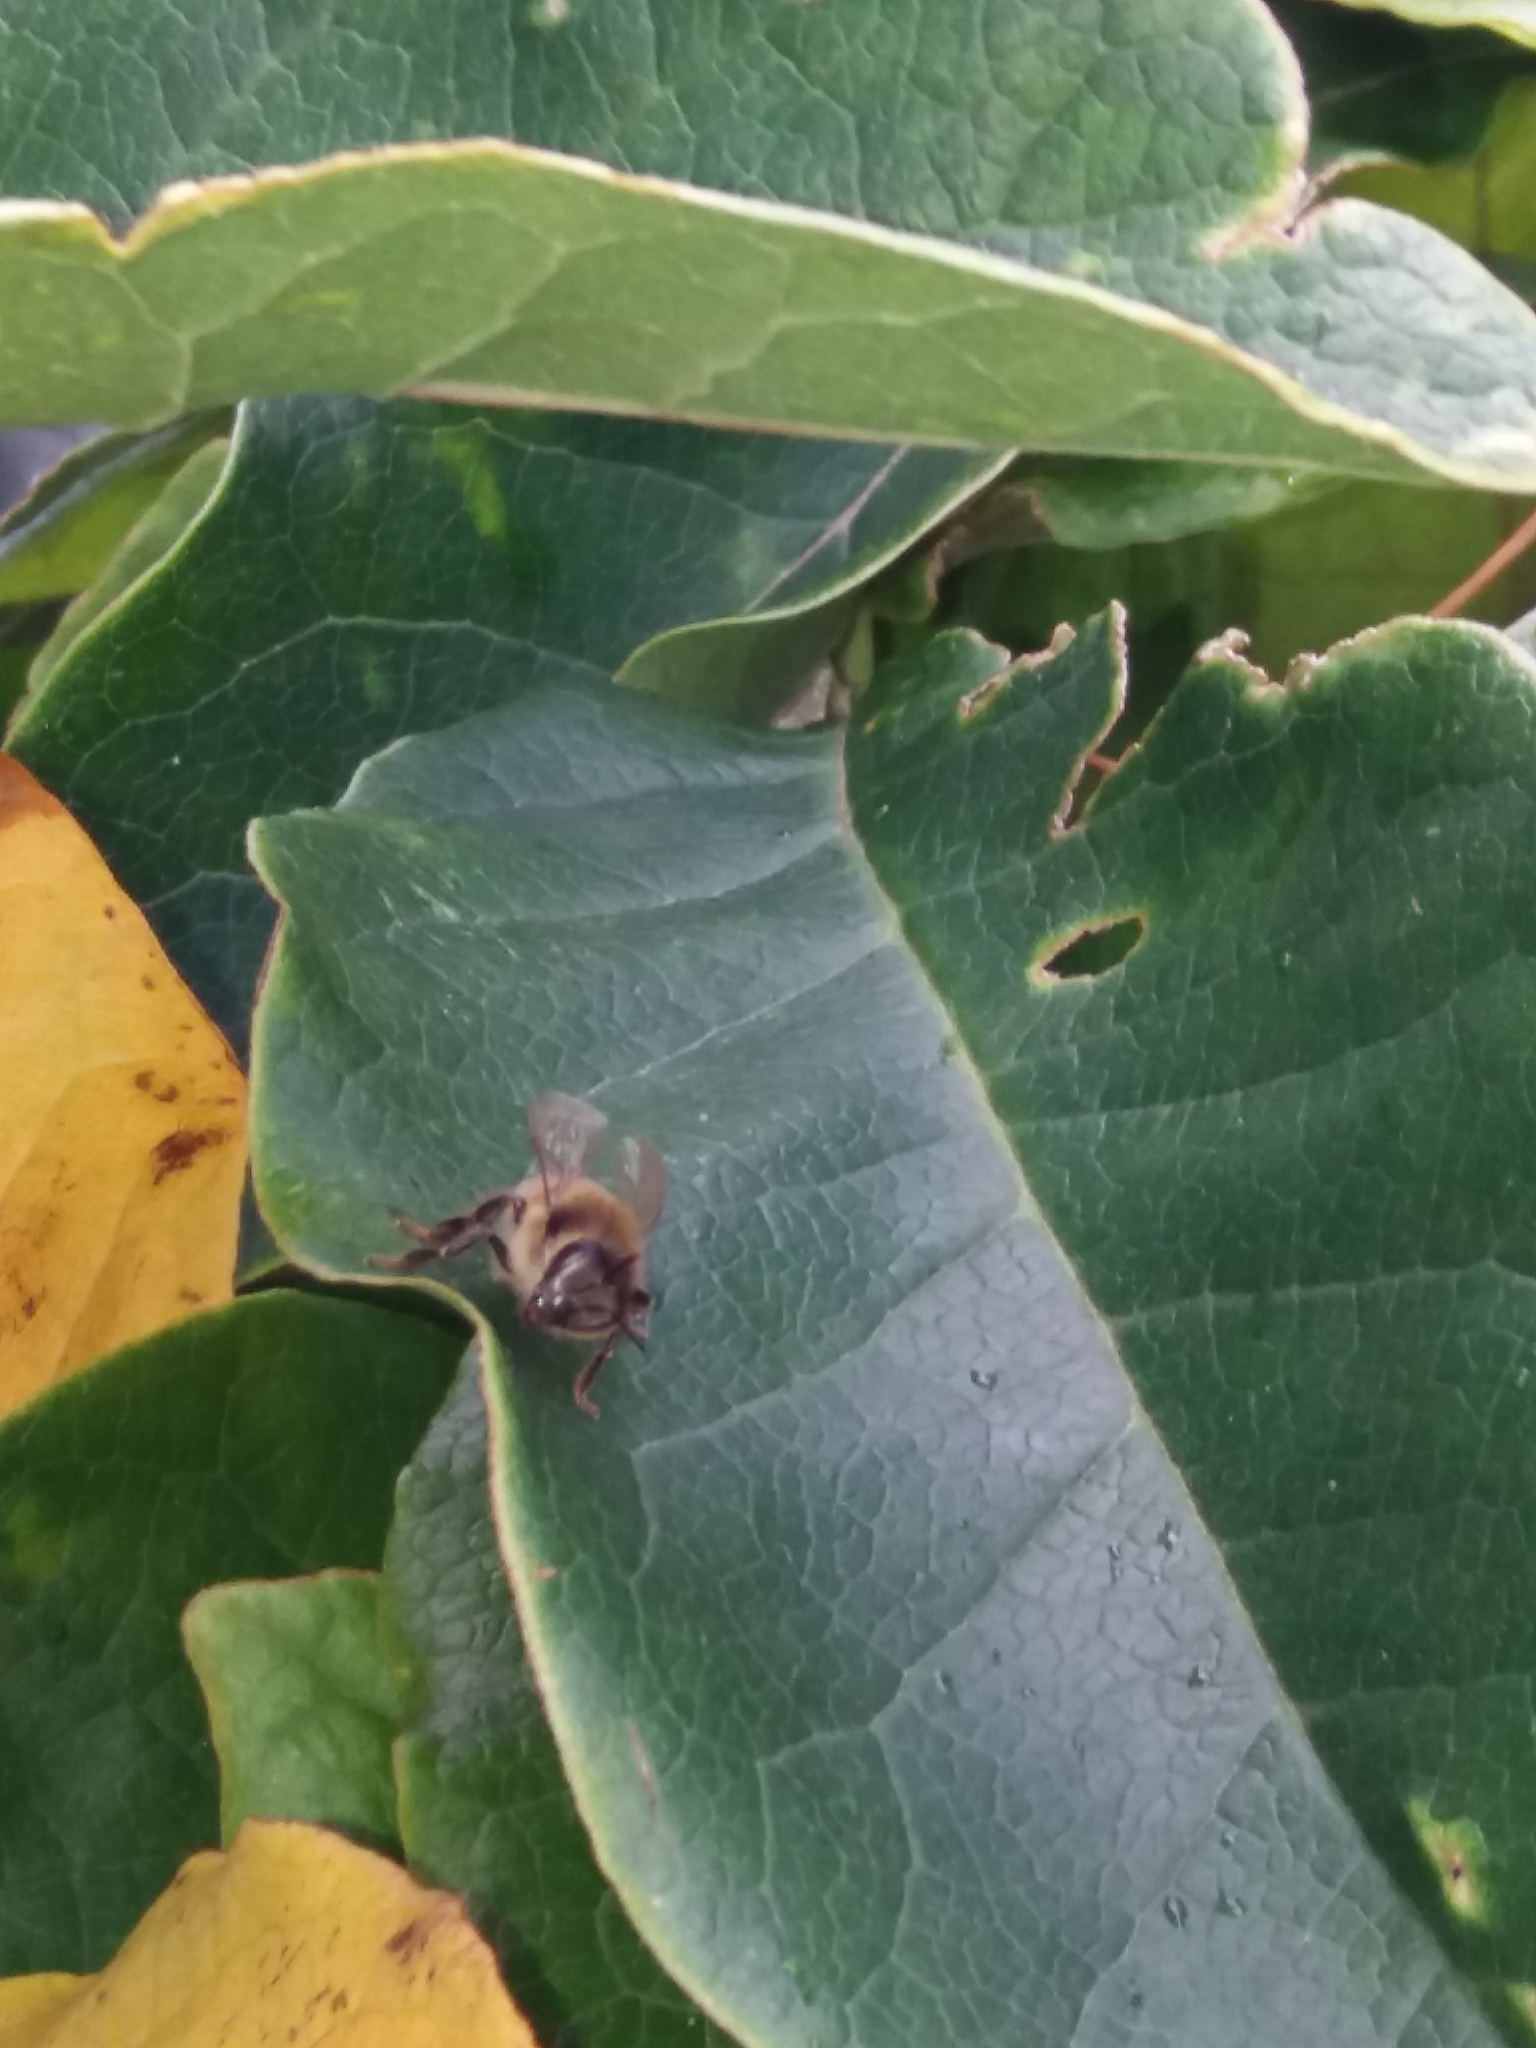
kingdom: Animalia
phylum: Arthropoda
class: Insecta
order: Hymenoptera
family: Apidae
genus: Apis
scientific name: Apis mellifera
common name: Honey bee
